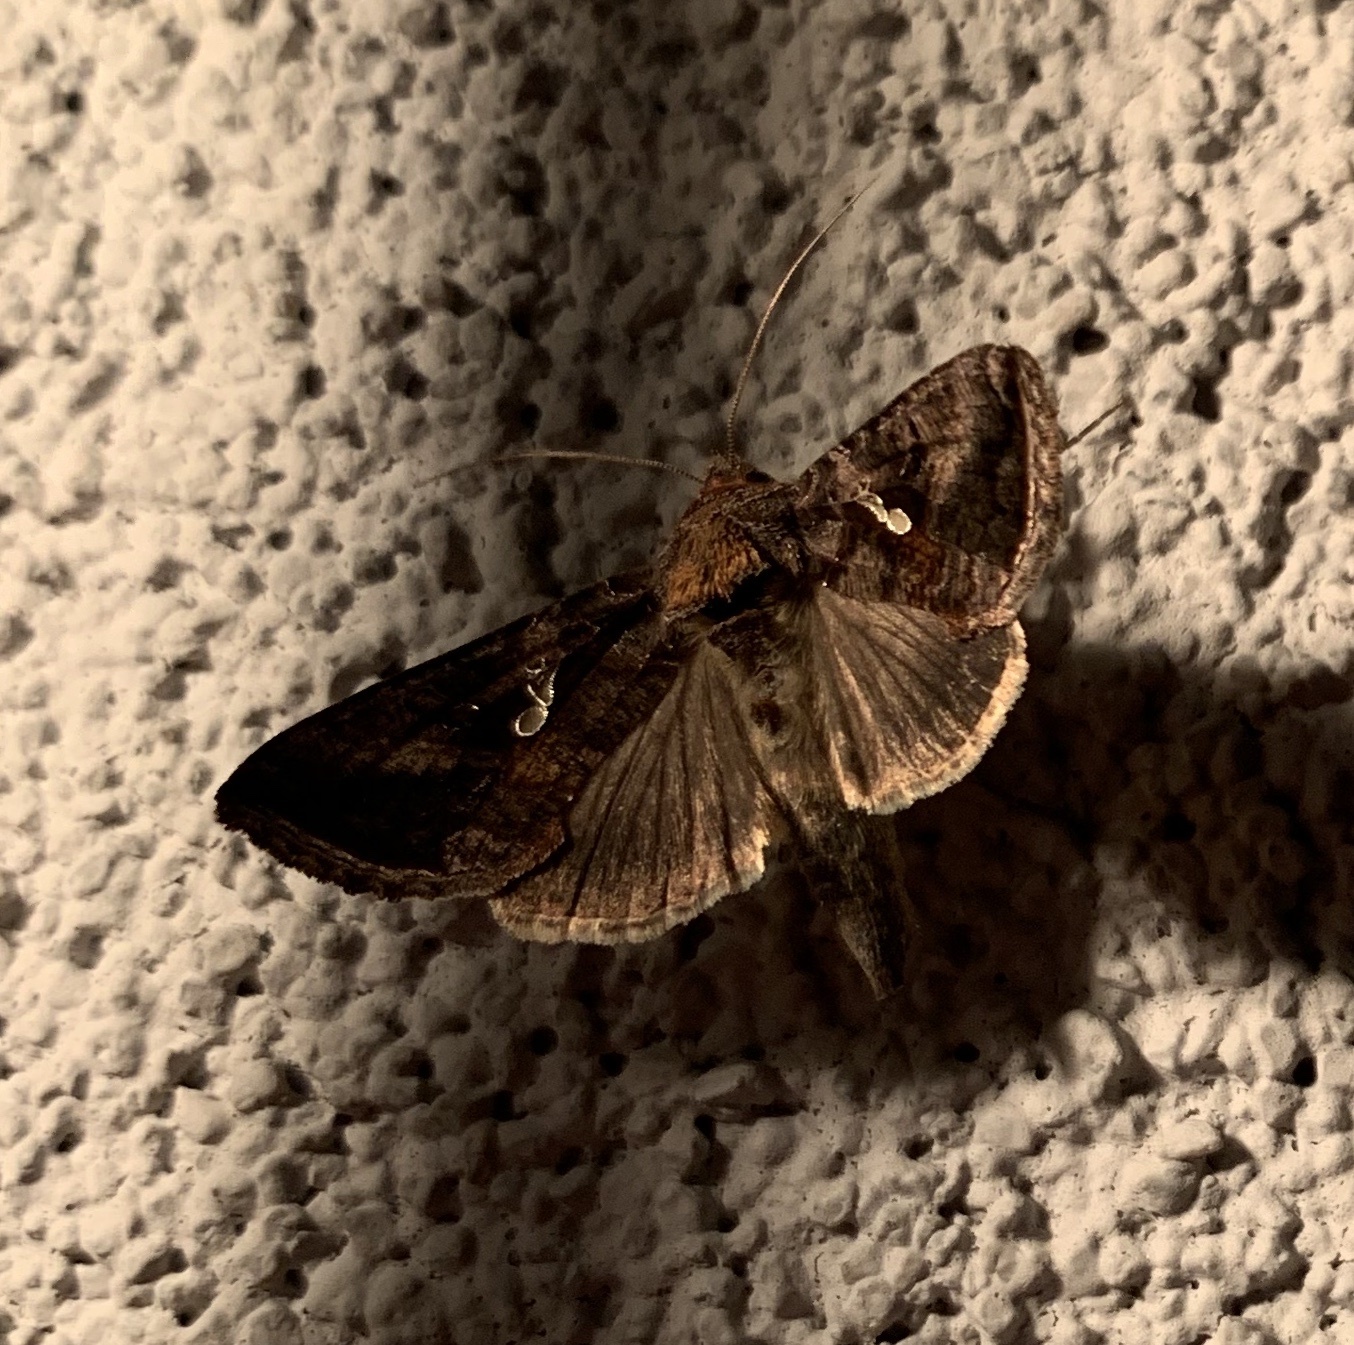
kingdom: Animalia
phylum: Arthropoda
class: Insecta
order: Lepidoptera
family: Noctuidae
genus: Autographa
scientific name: Autographa precationis
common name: Common looper moth
